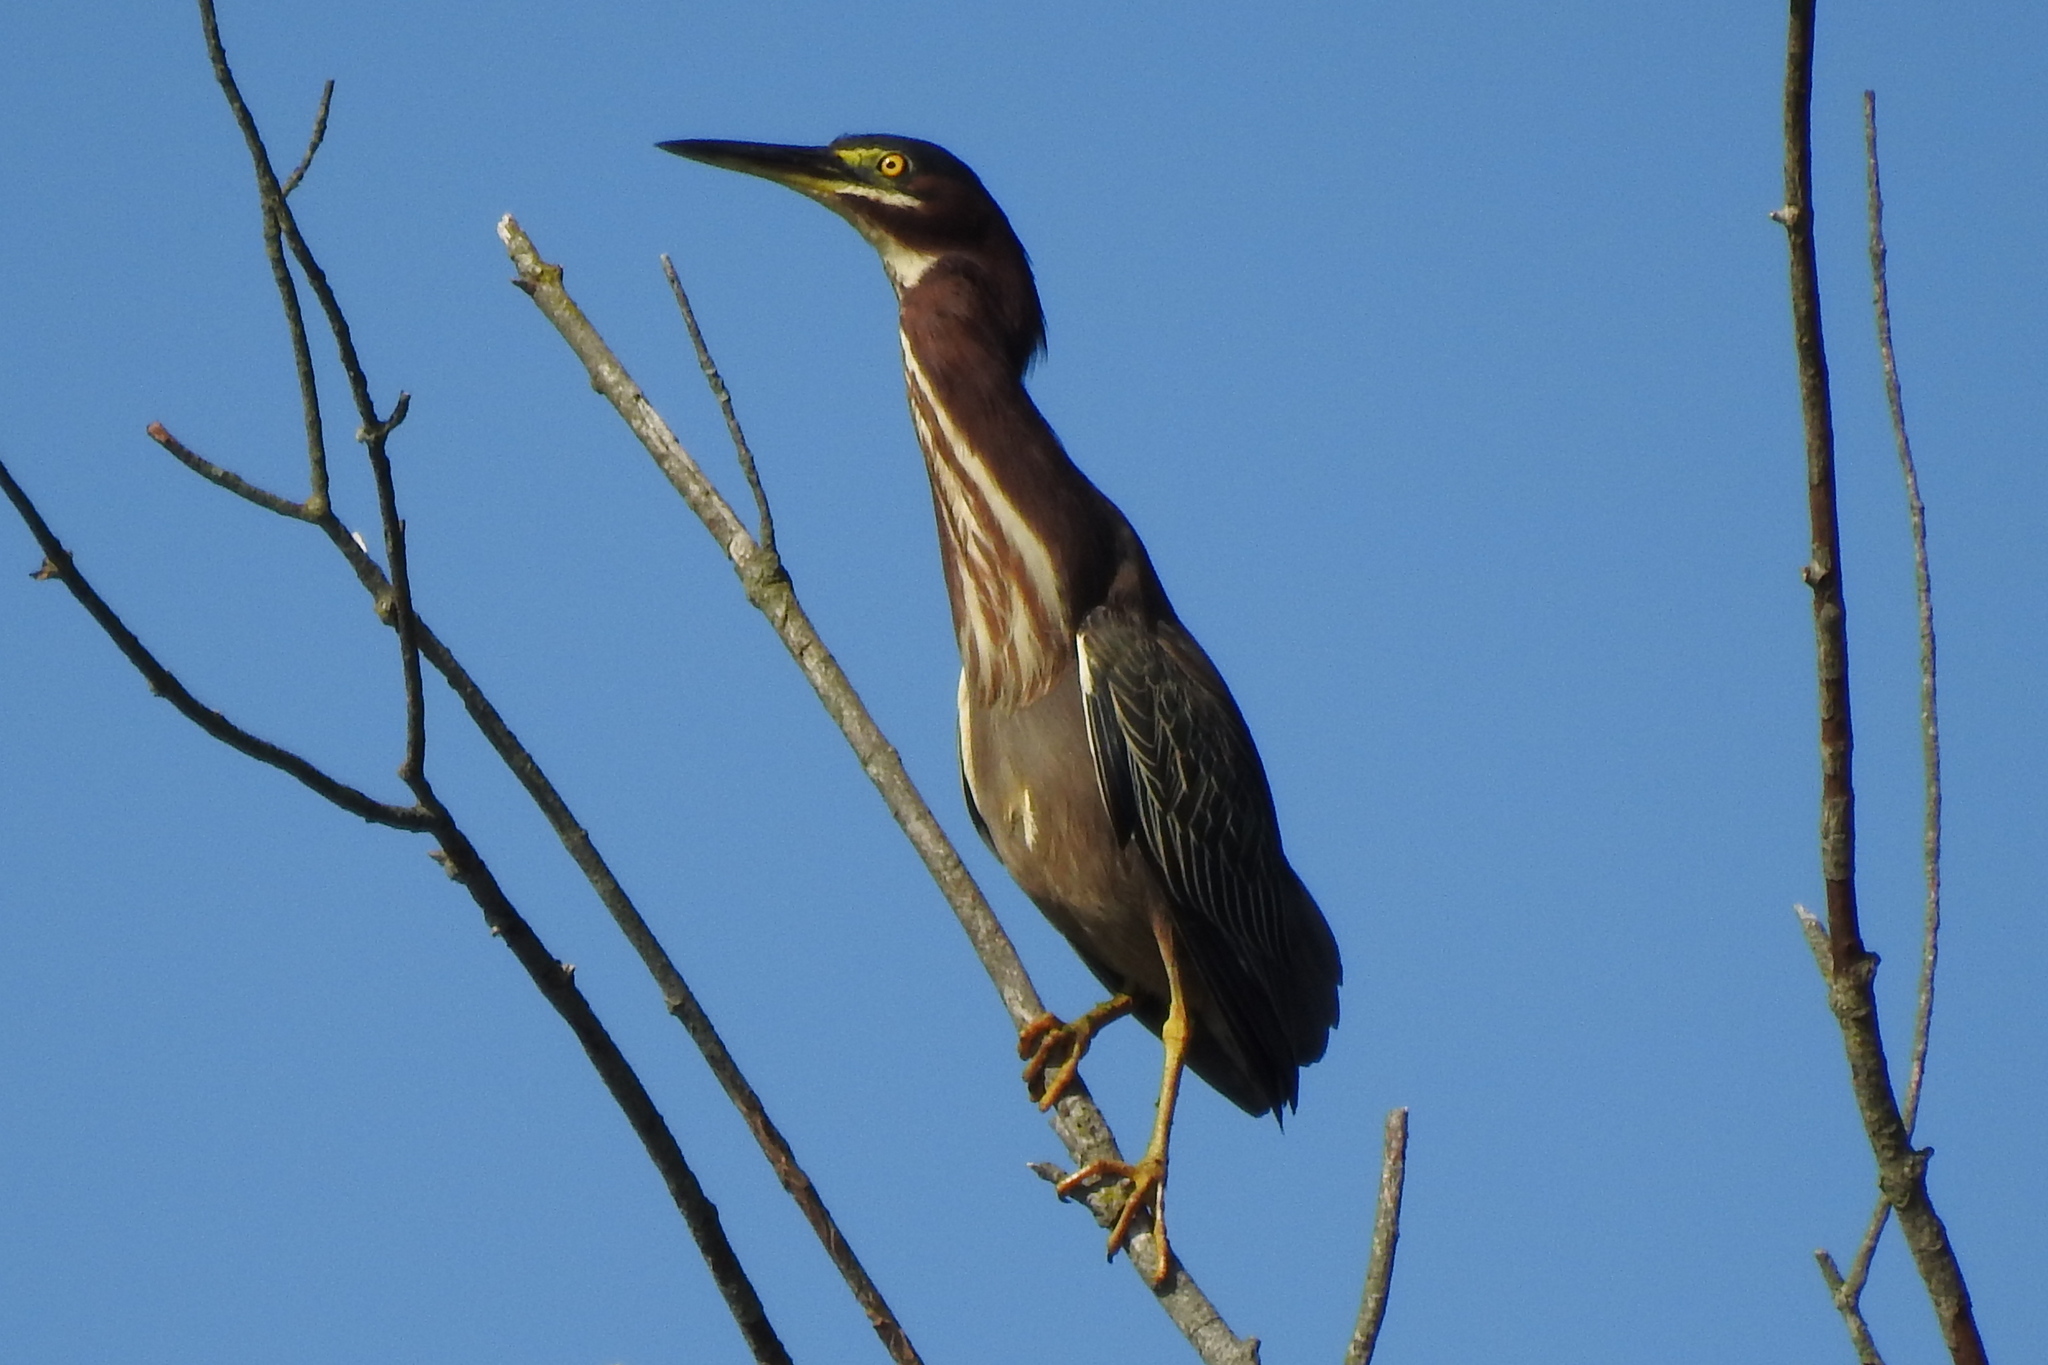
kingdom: Animalia
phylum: Chordata
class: Aves
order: Pelecaniformes
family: Ardeidae
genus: Butorides
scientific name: Butorides virescens
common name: Green heron
